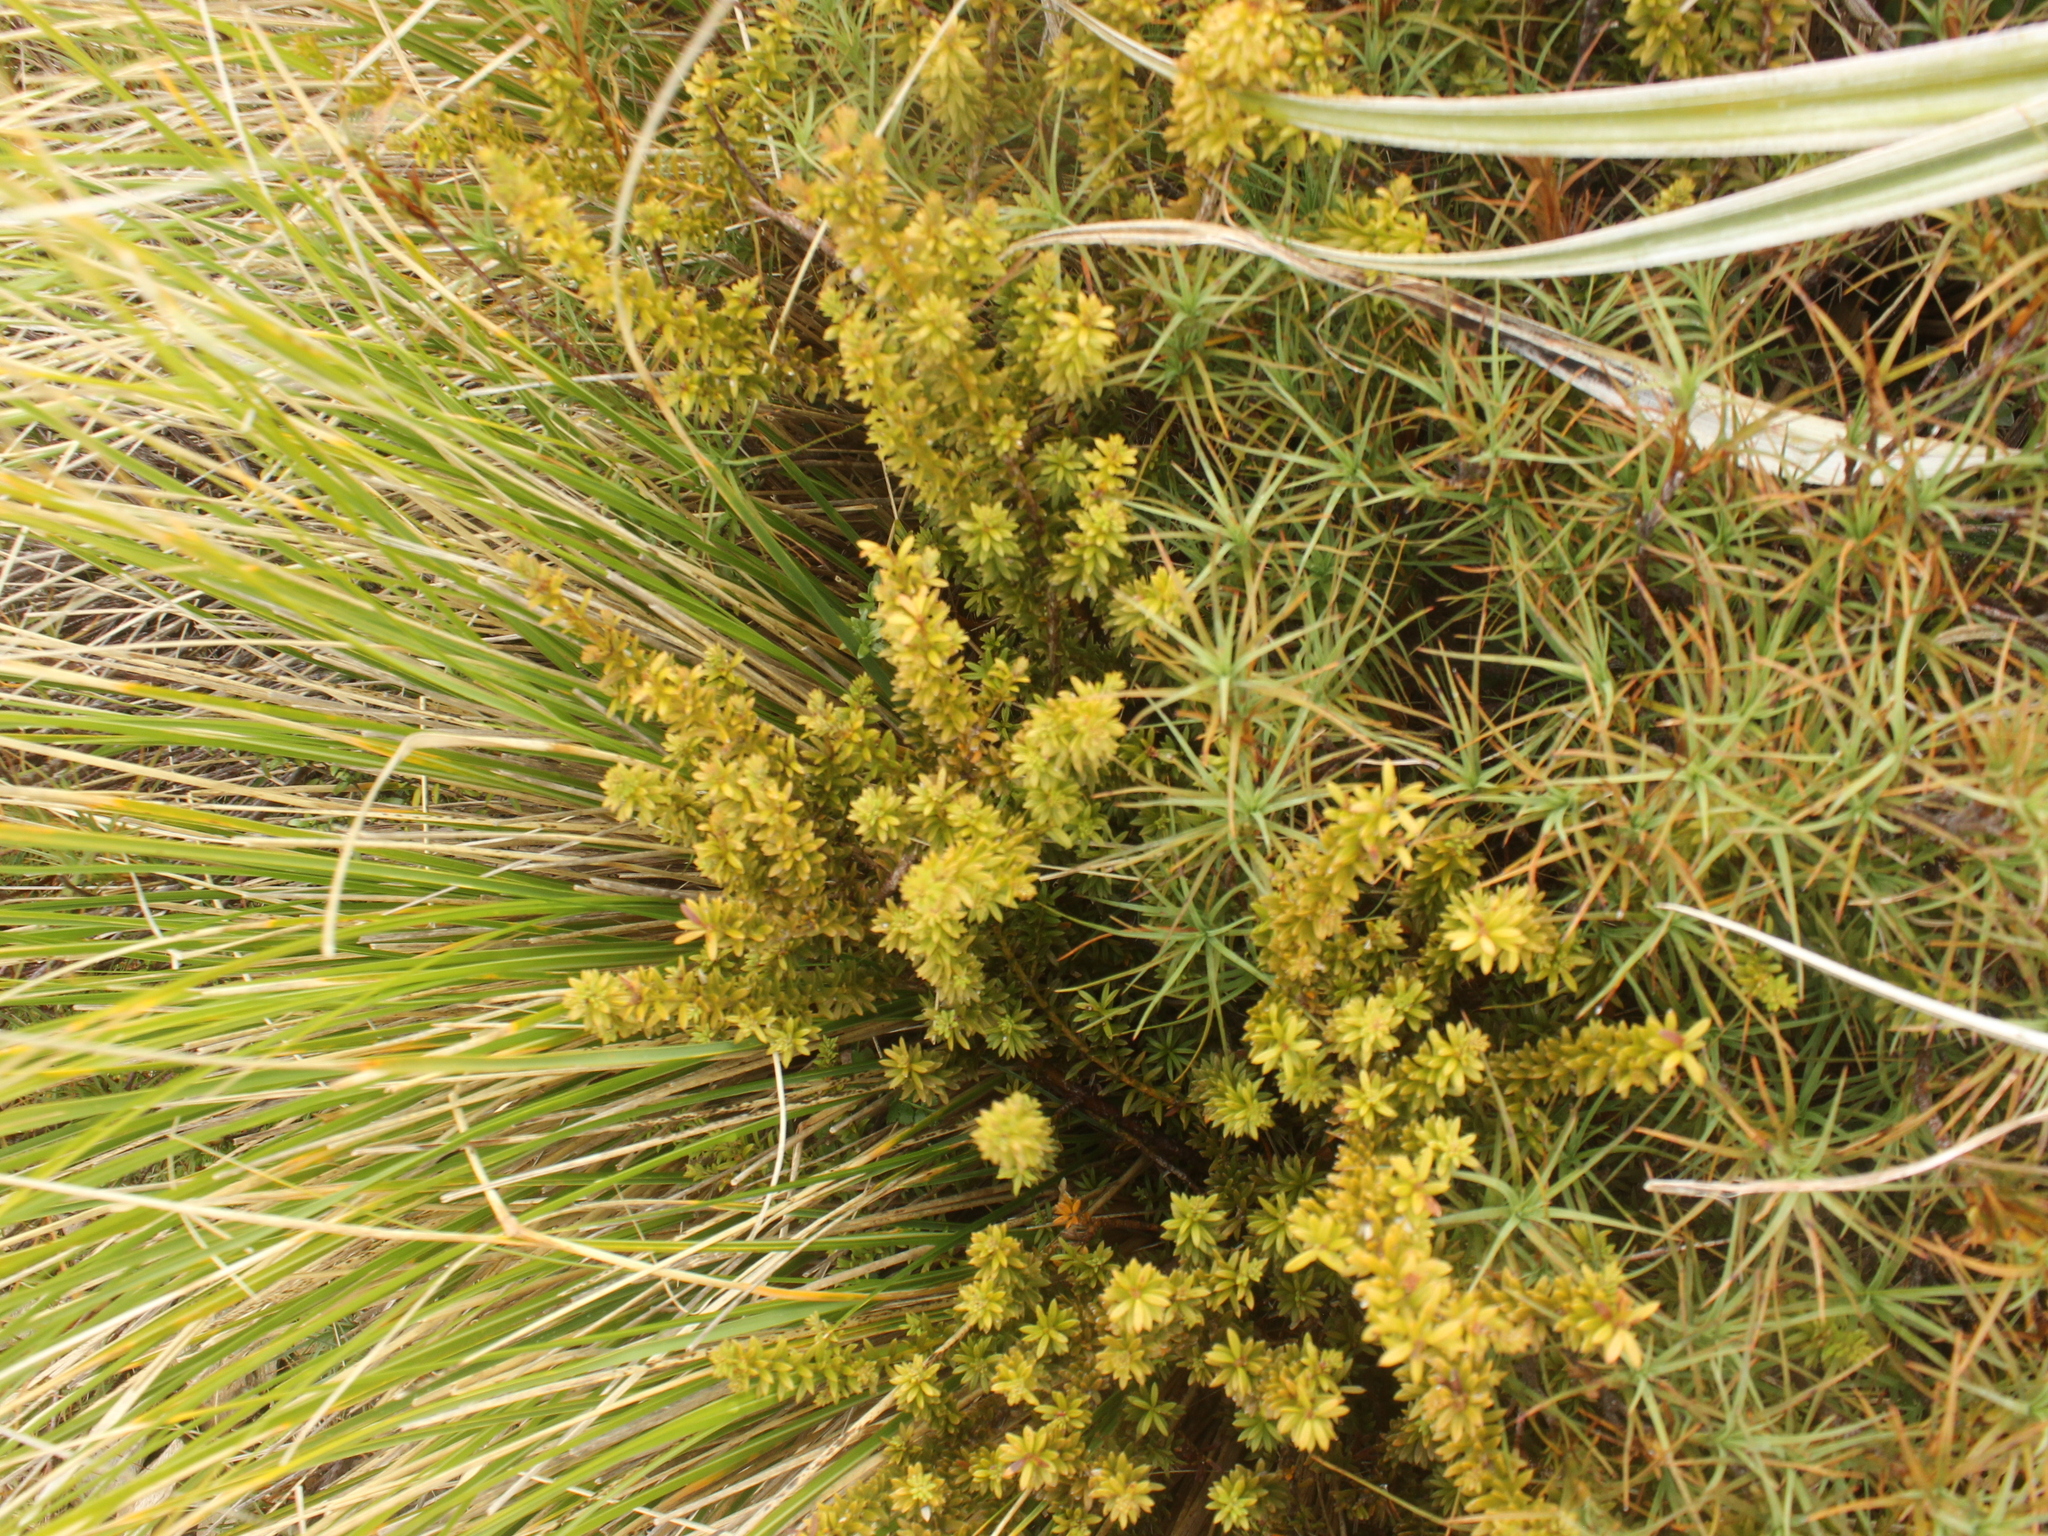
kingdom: Plantae
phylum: Tracheophyta
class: Pinopsida
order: Pinales
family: Podocarpaceae
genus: Podocarpus
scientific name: Podocarpus nivalis
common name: Alpine totara
